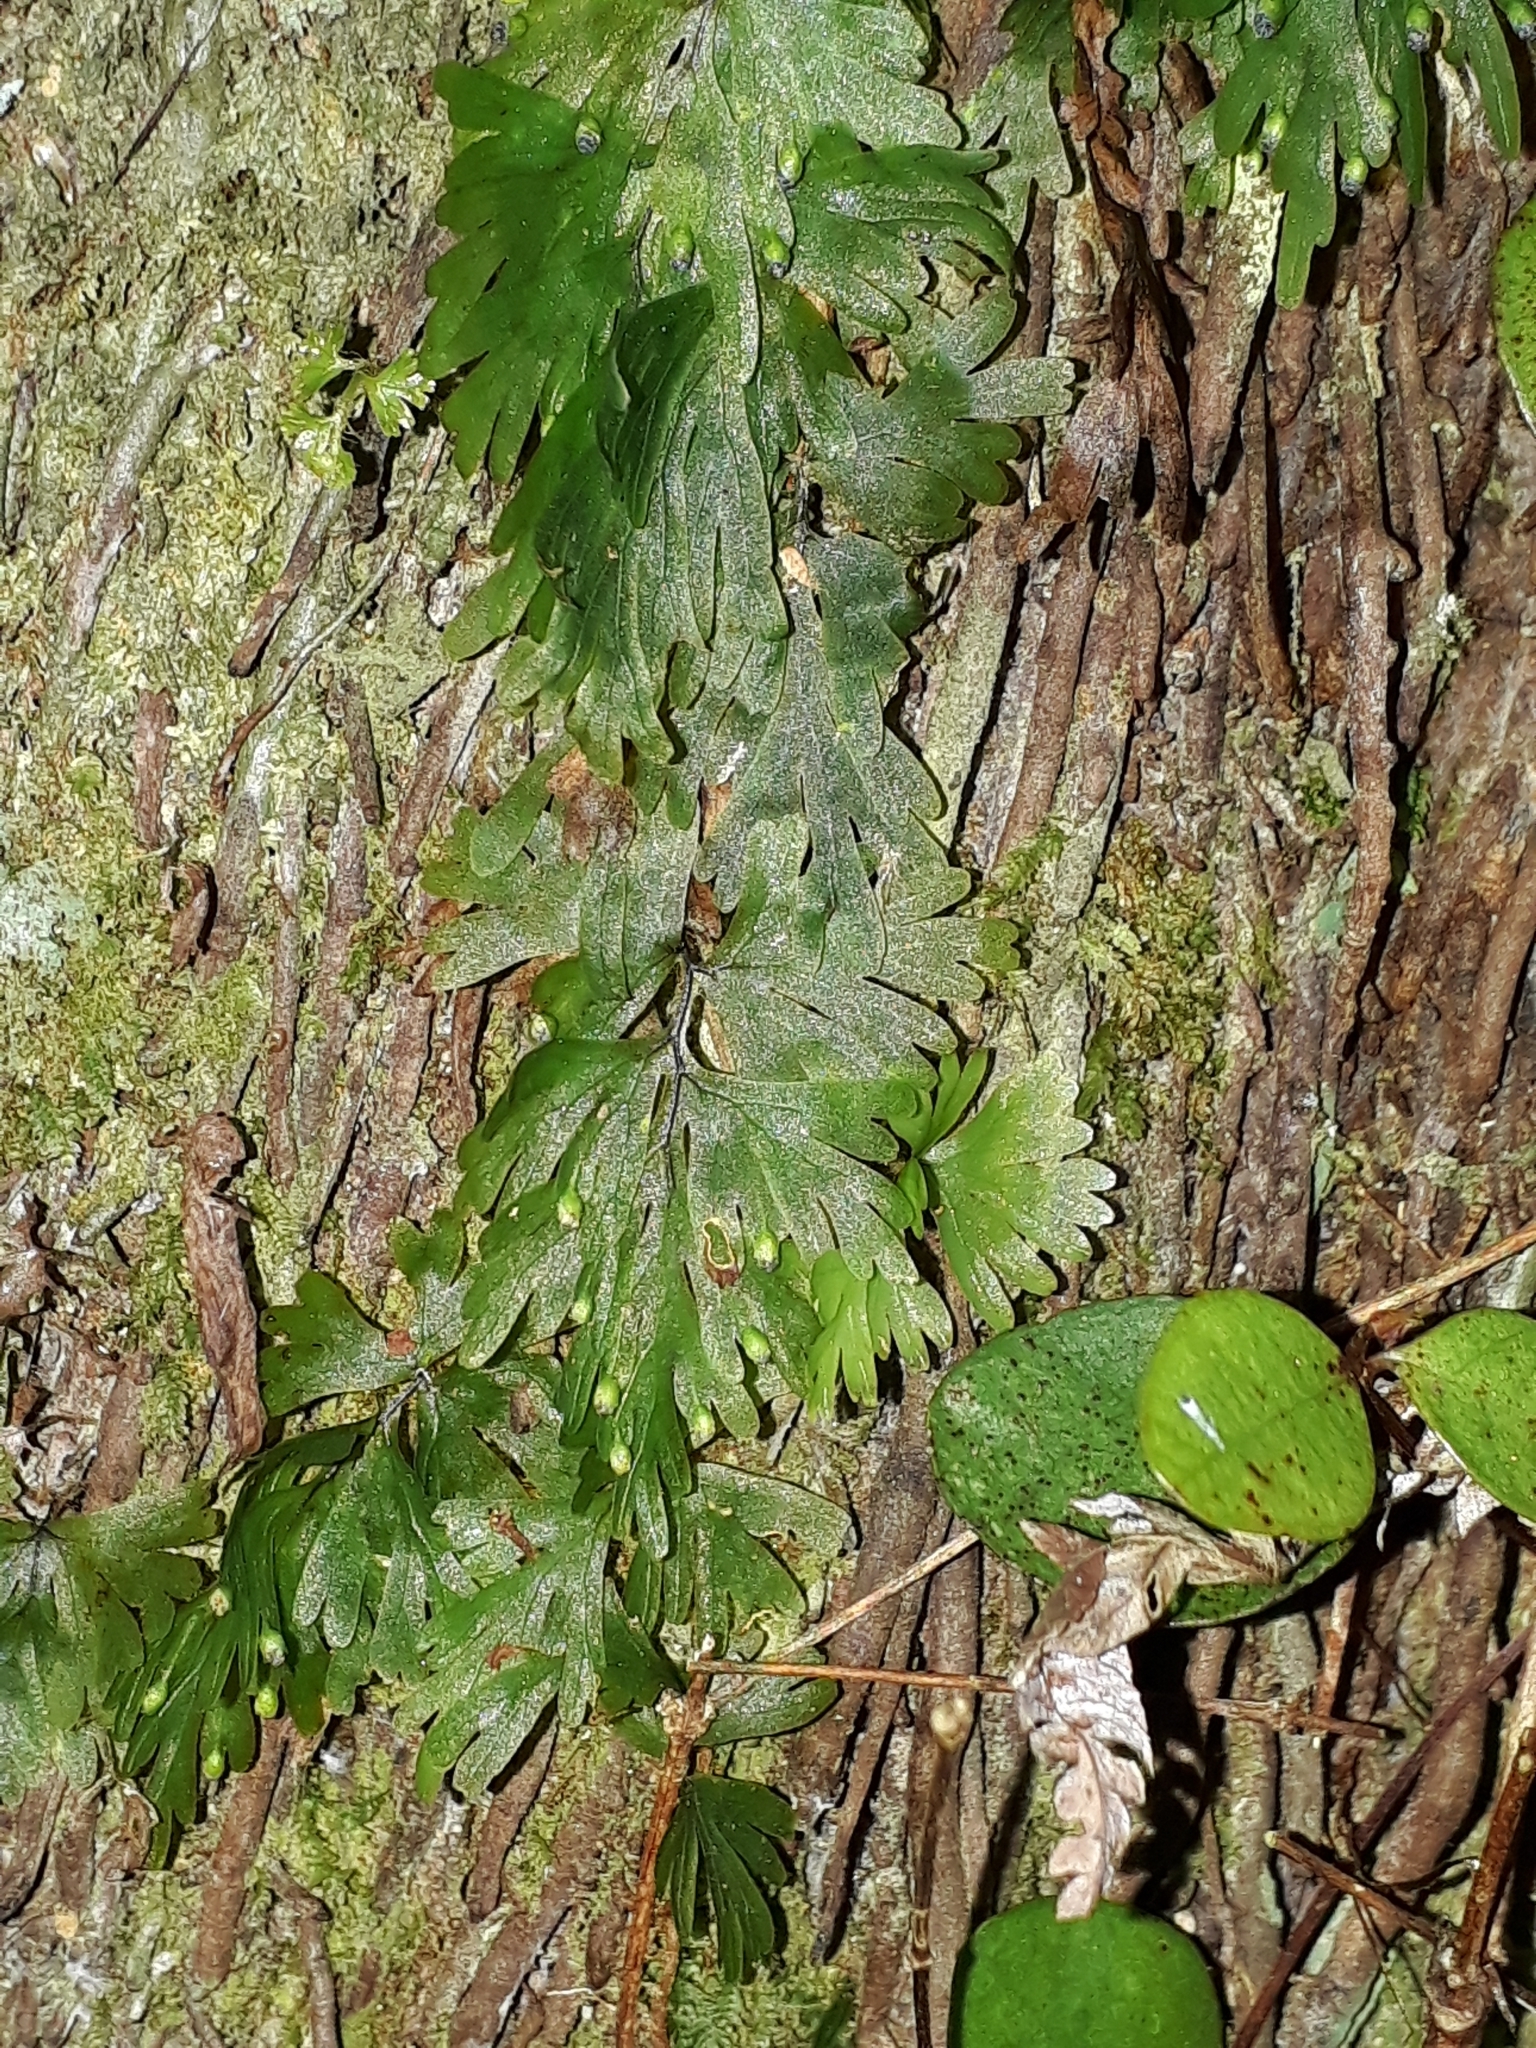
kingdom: Plantae
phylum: Tracheophyta
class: Polypodiopsida
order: Hymenophyllales
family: Hymenophyllaceae
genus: Hymenophyllum
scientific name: Hymenophyllum flabellatum
